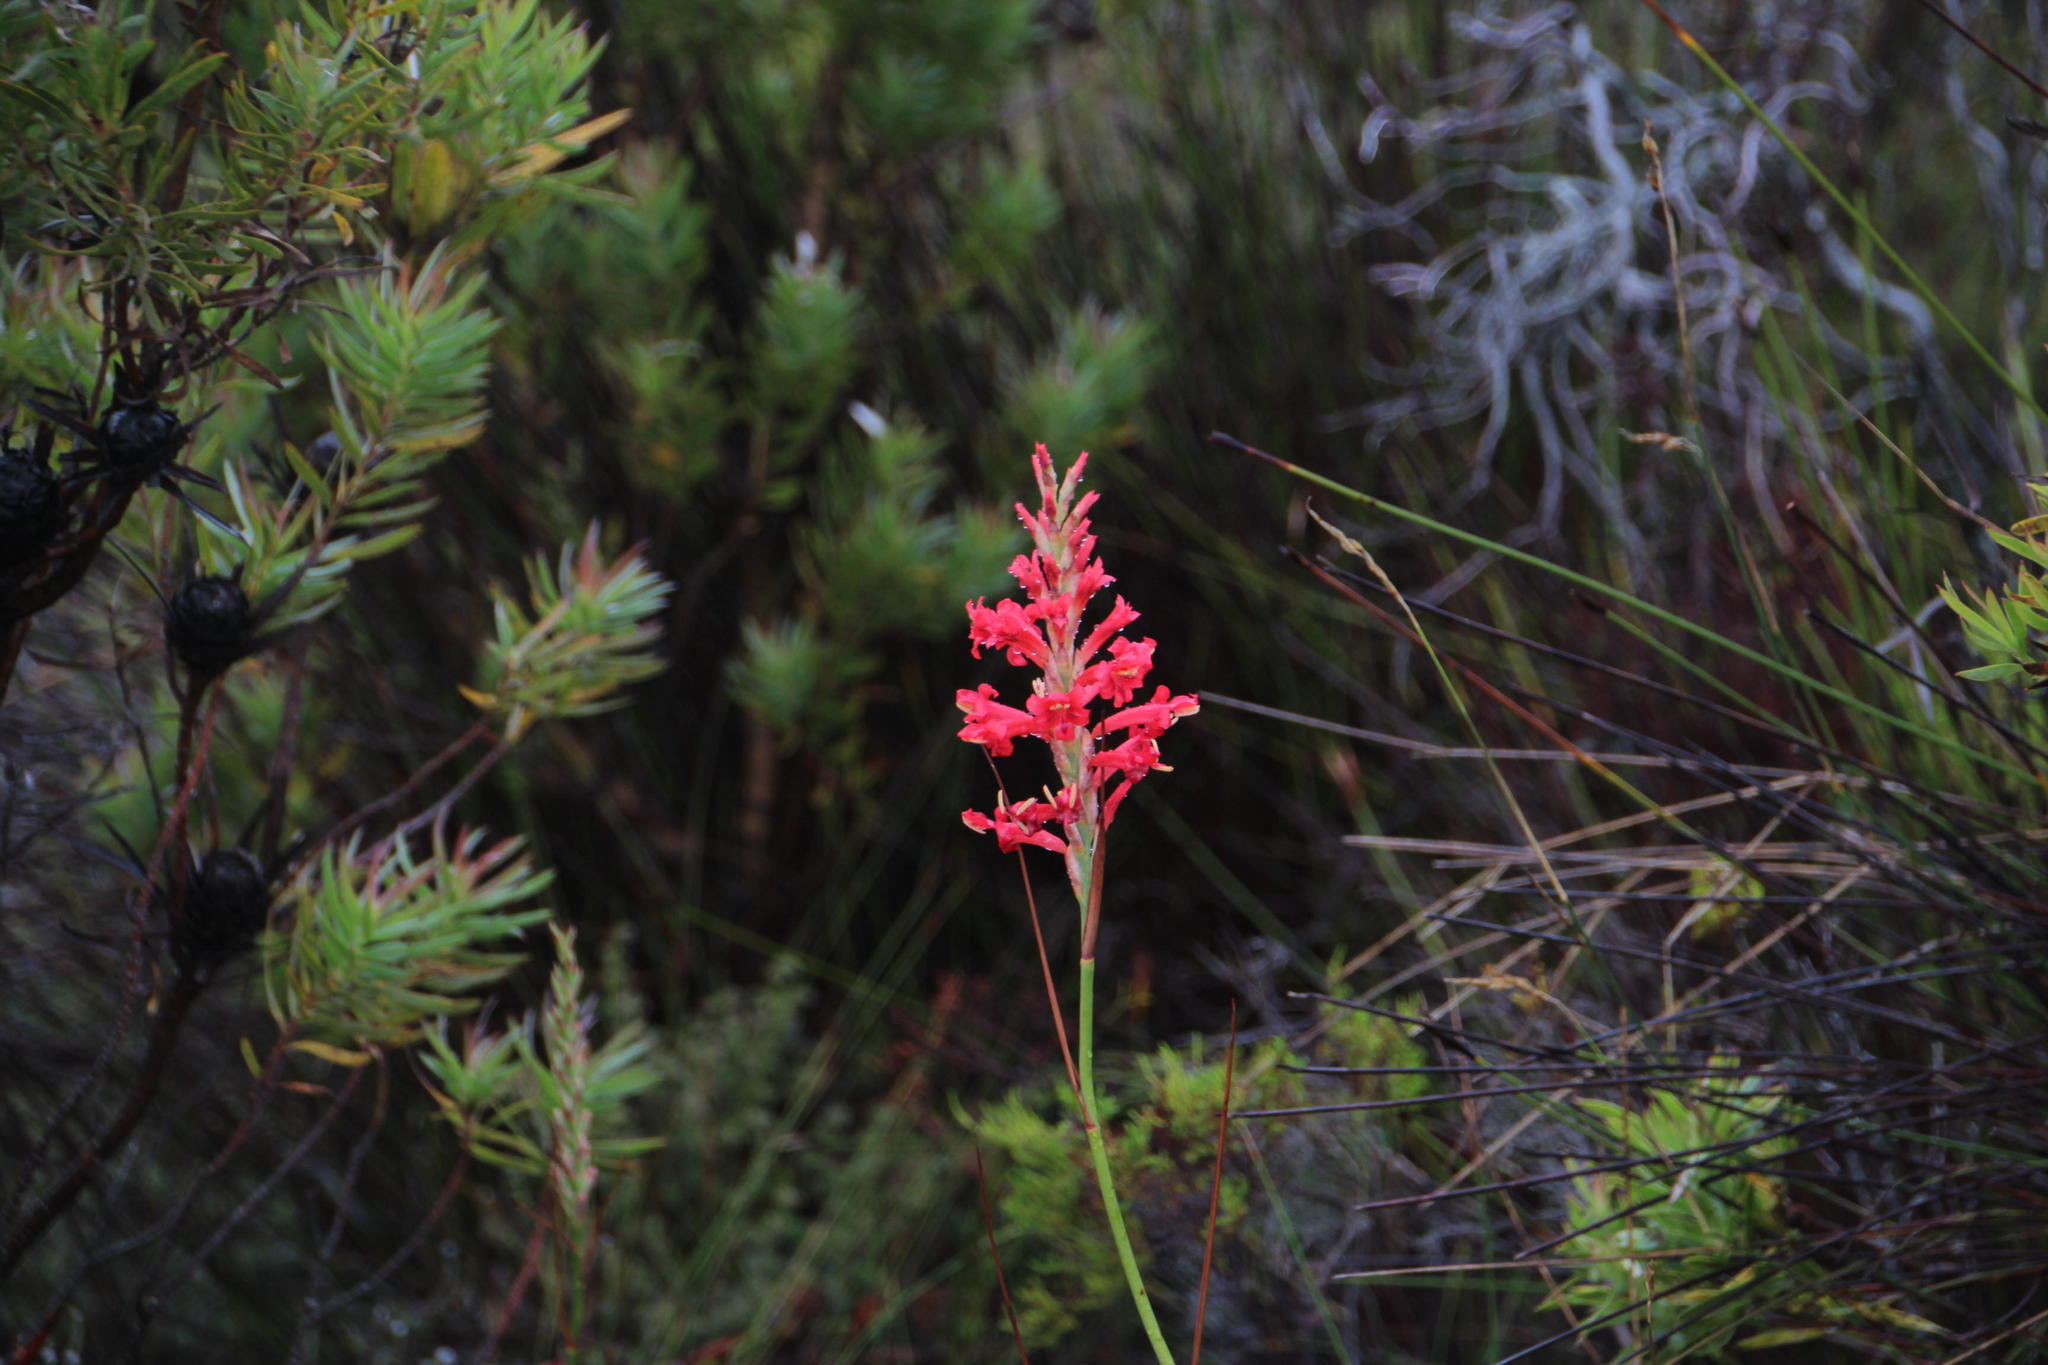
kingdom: Plantae
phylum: Tracheophyta
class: Liliopsida
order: Asparagales
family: Iridaceae
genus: Tritoniopsis
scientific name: Tritoniopsis triticea
